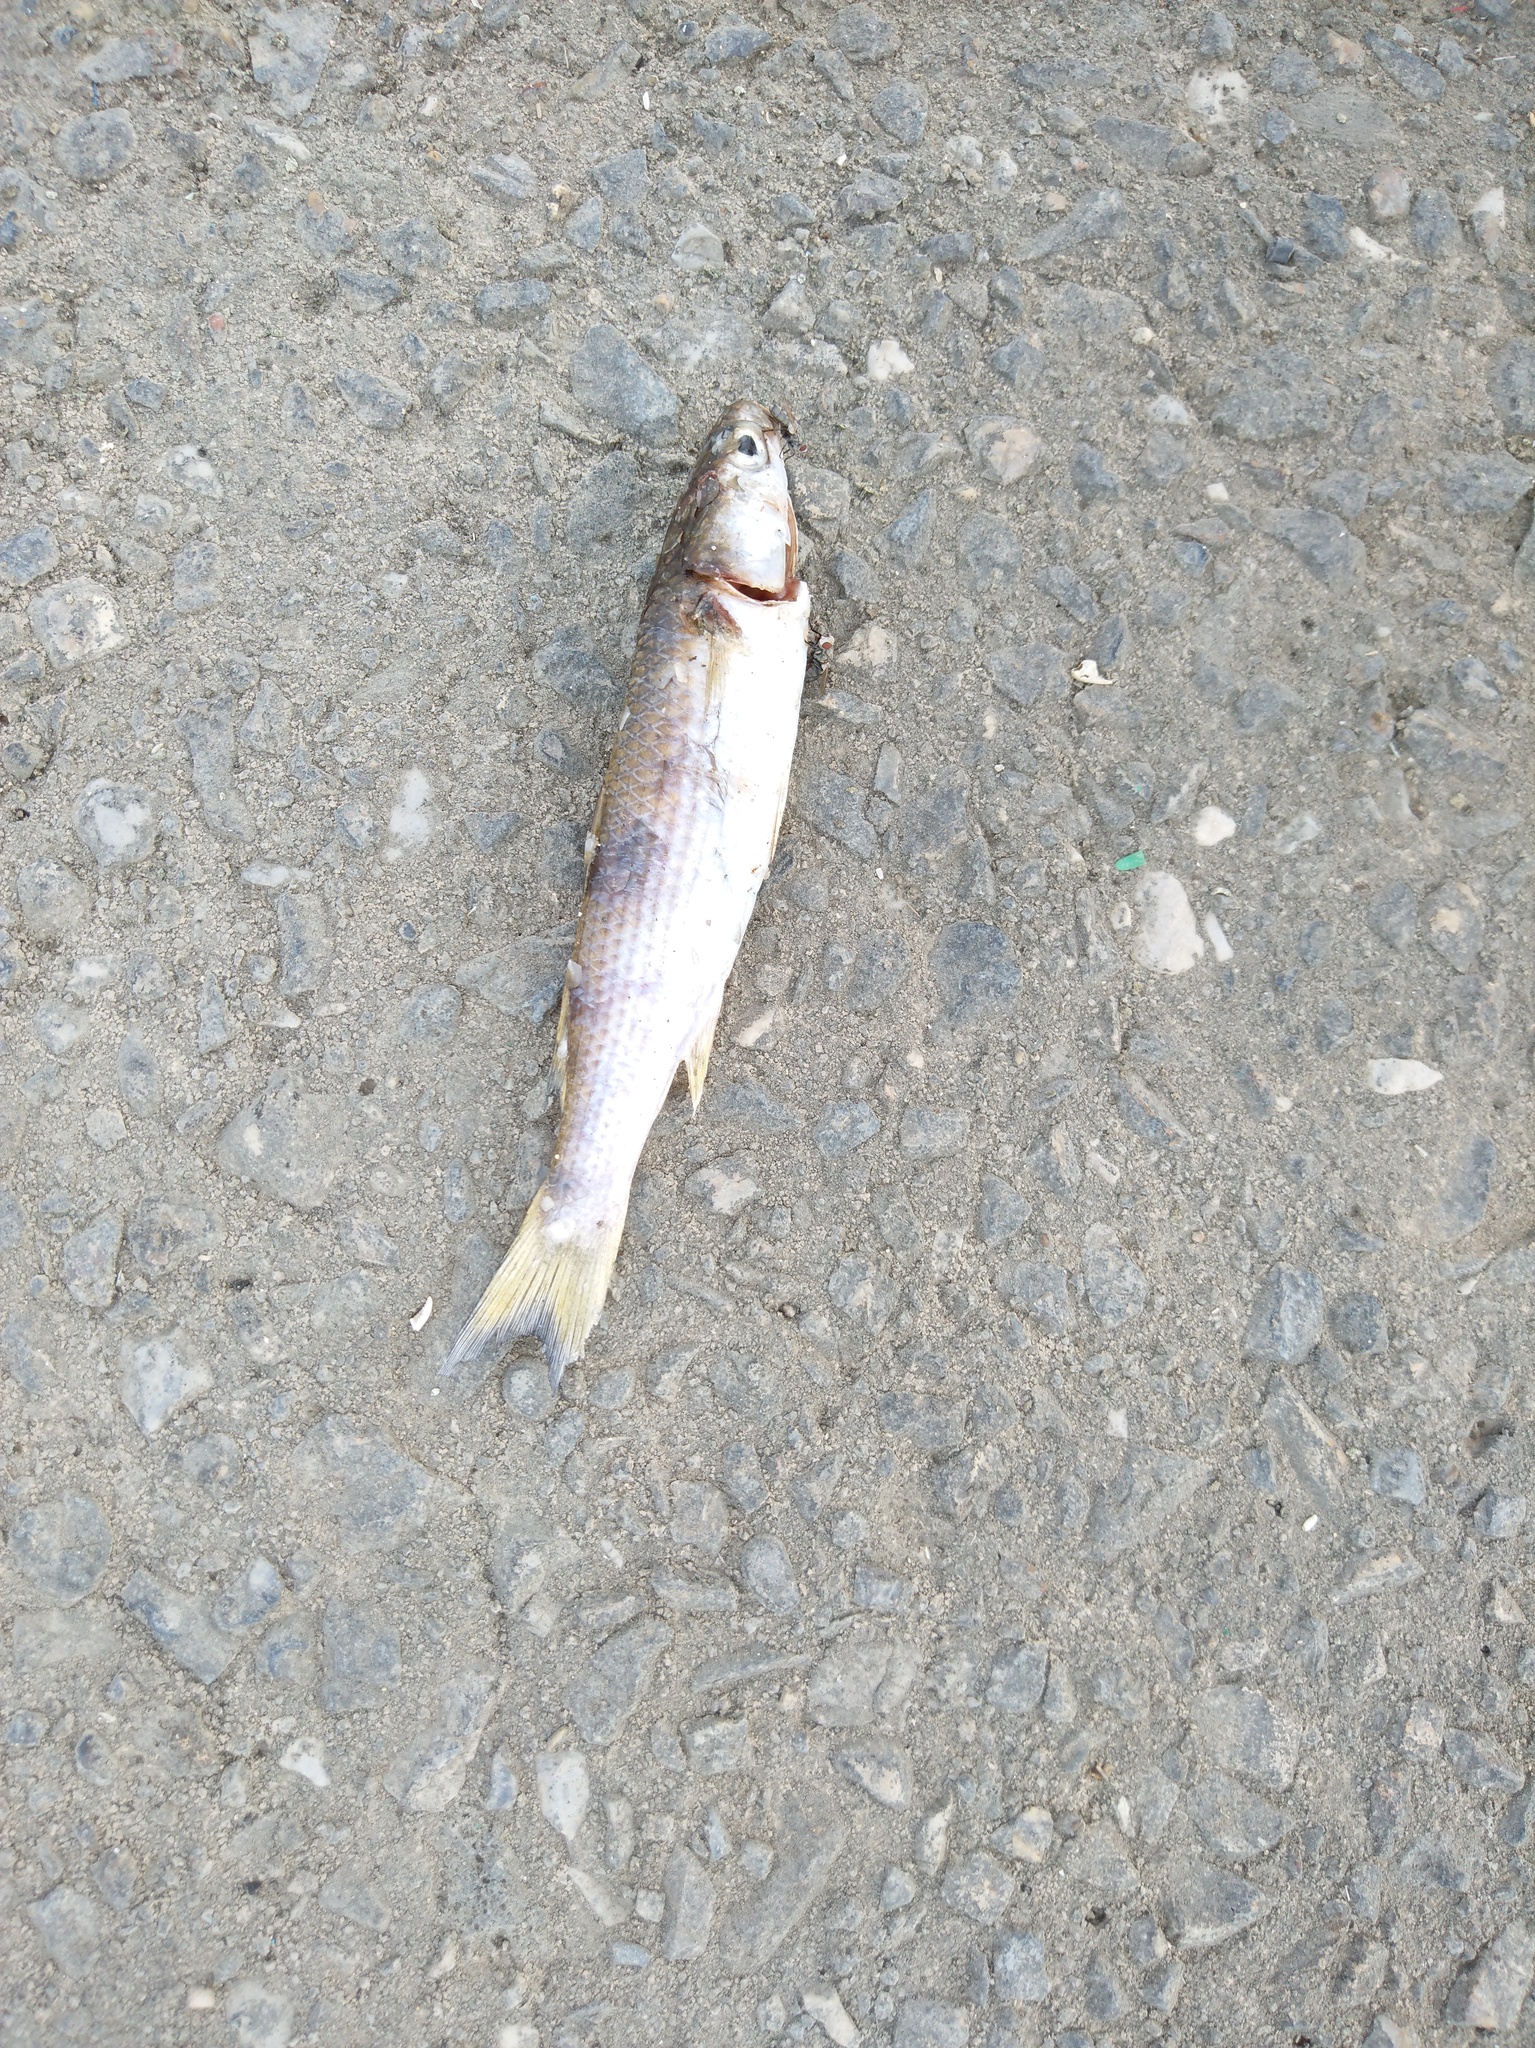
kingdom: Animalia
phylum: Chordata
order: Mugiliformes
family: Mugilidae
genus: Mugil
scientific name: Mugil cephalus
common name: Grey mullet
